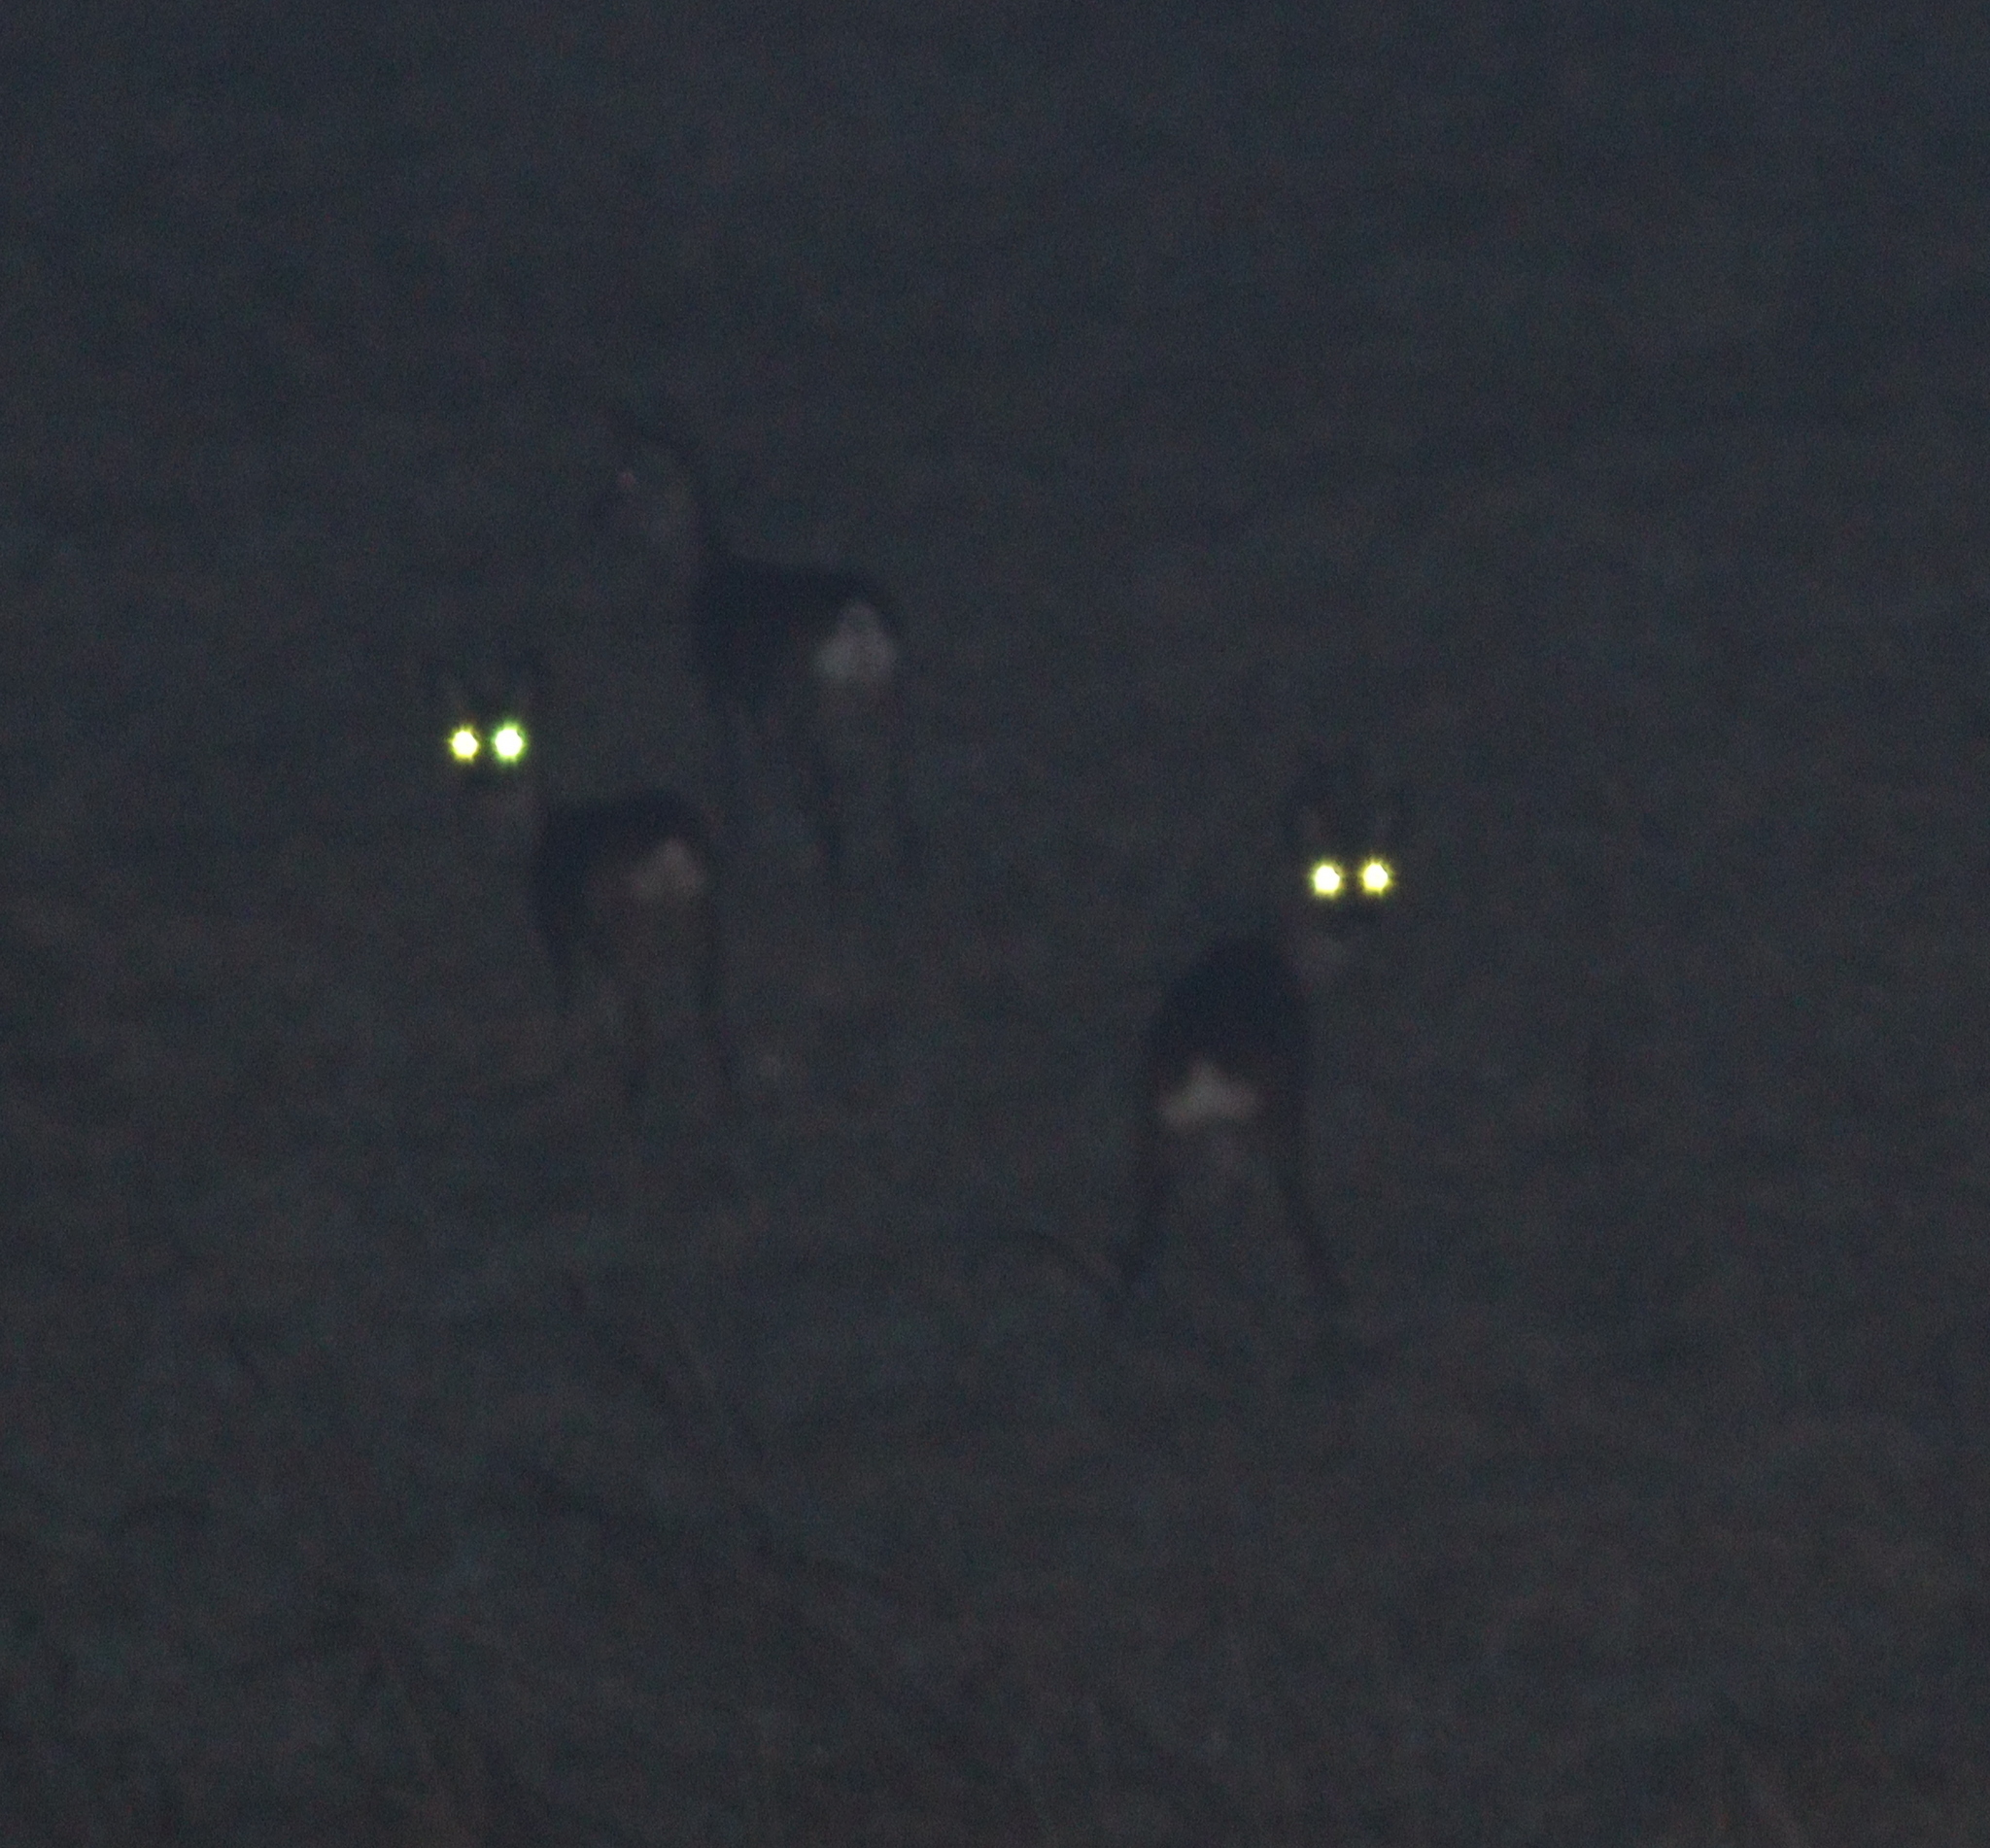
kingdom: Animalia
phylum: Chordata
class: Mammalia
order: Artiodactyla
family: Cervidae
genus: Capreolus
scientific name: Capreolus capreolus
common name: Western roe deer
